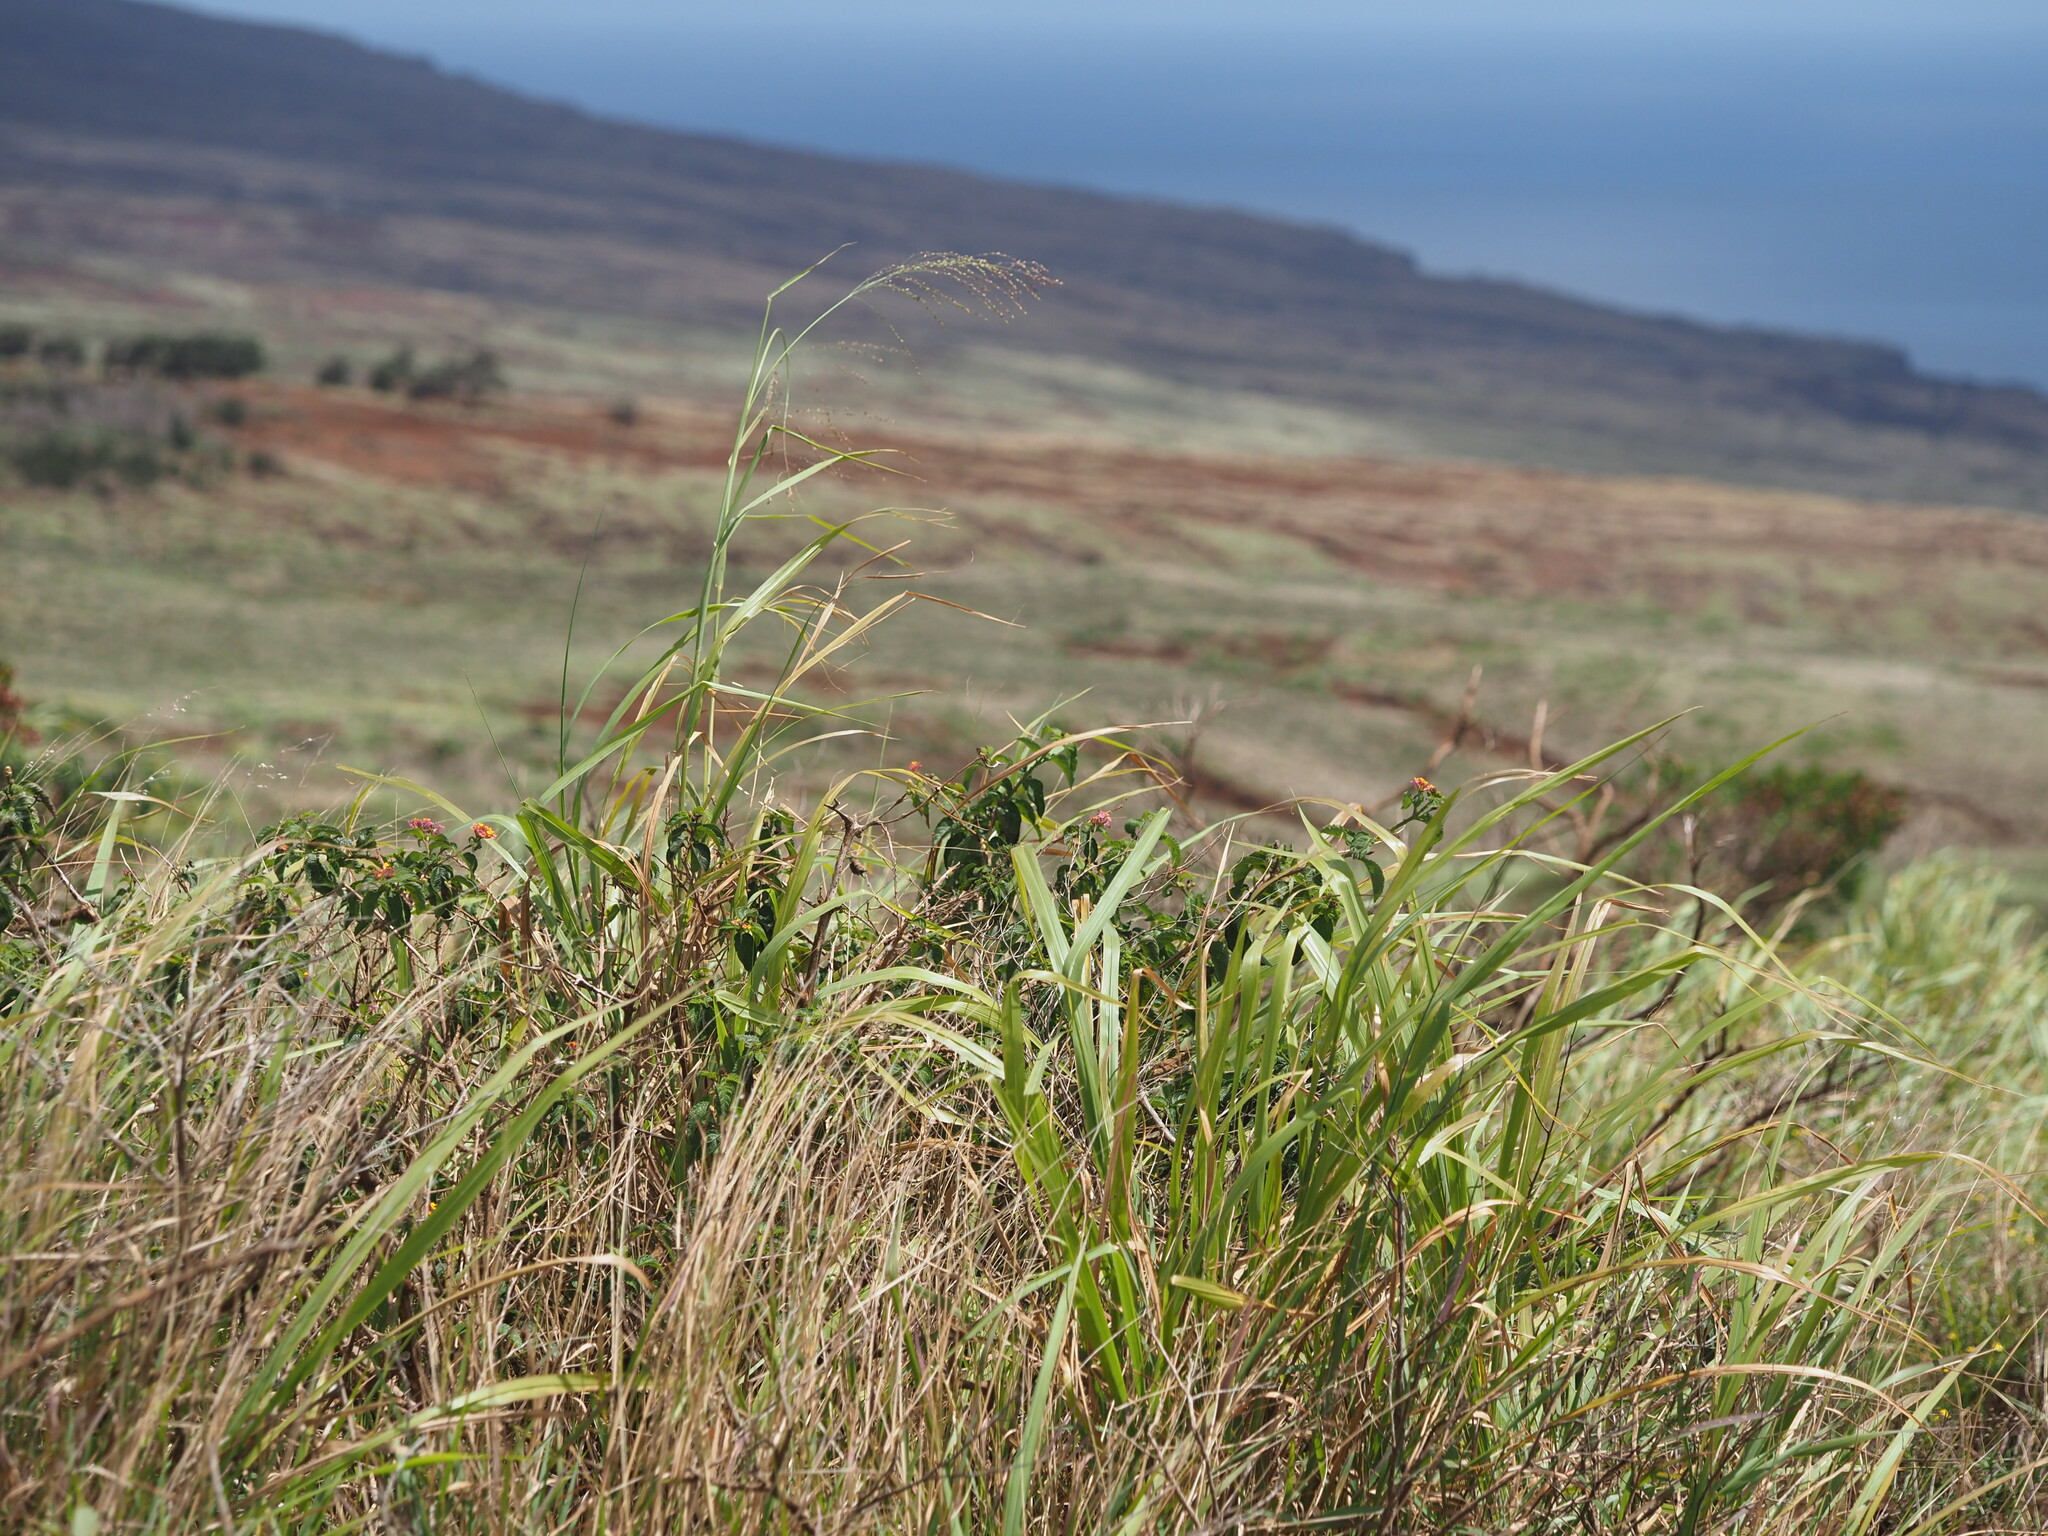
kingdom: Plantae
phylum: Tracheophyta
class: Liliopsida
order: Poales
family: Poaceae
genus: Megathyrsus
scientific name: Megathyrsus maximus
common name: Guineagrass
